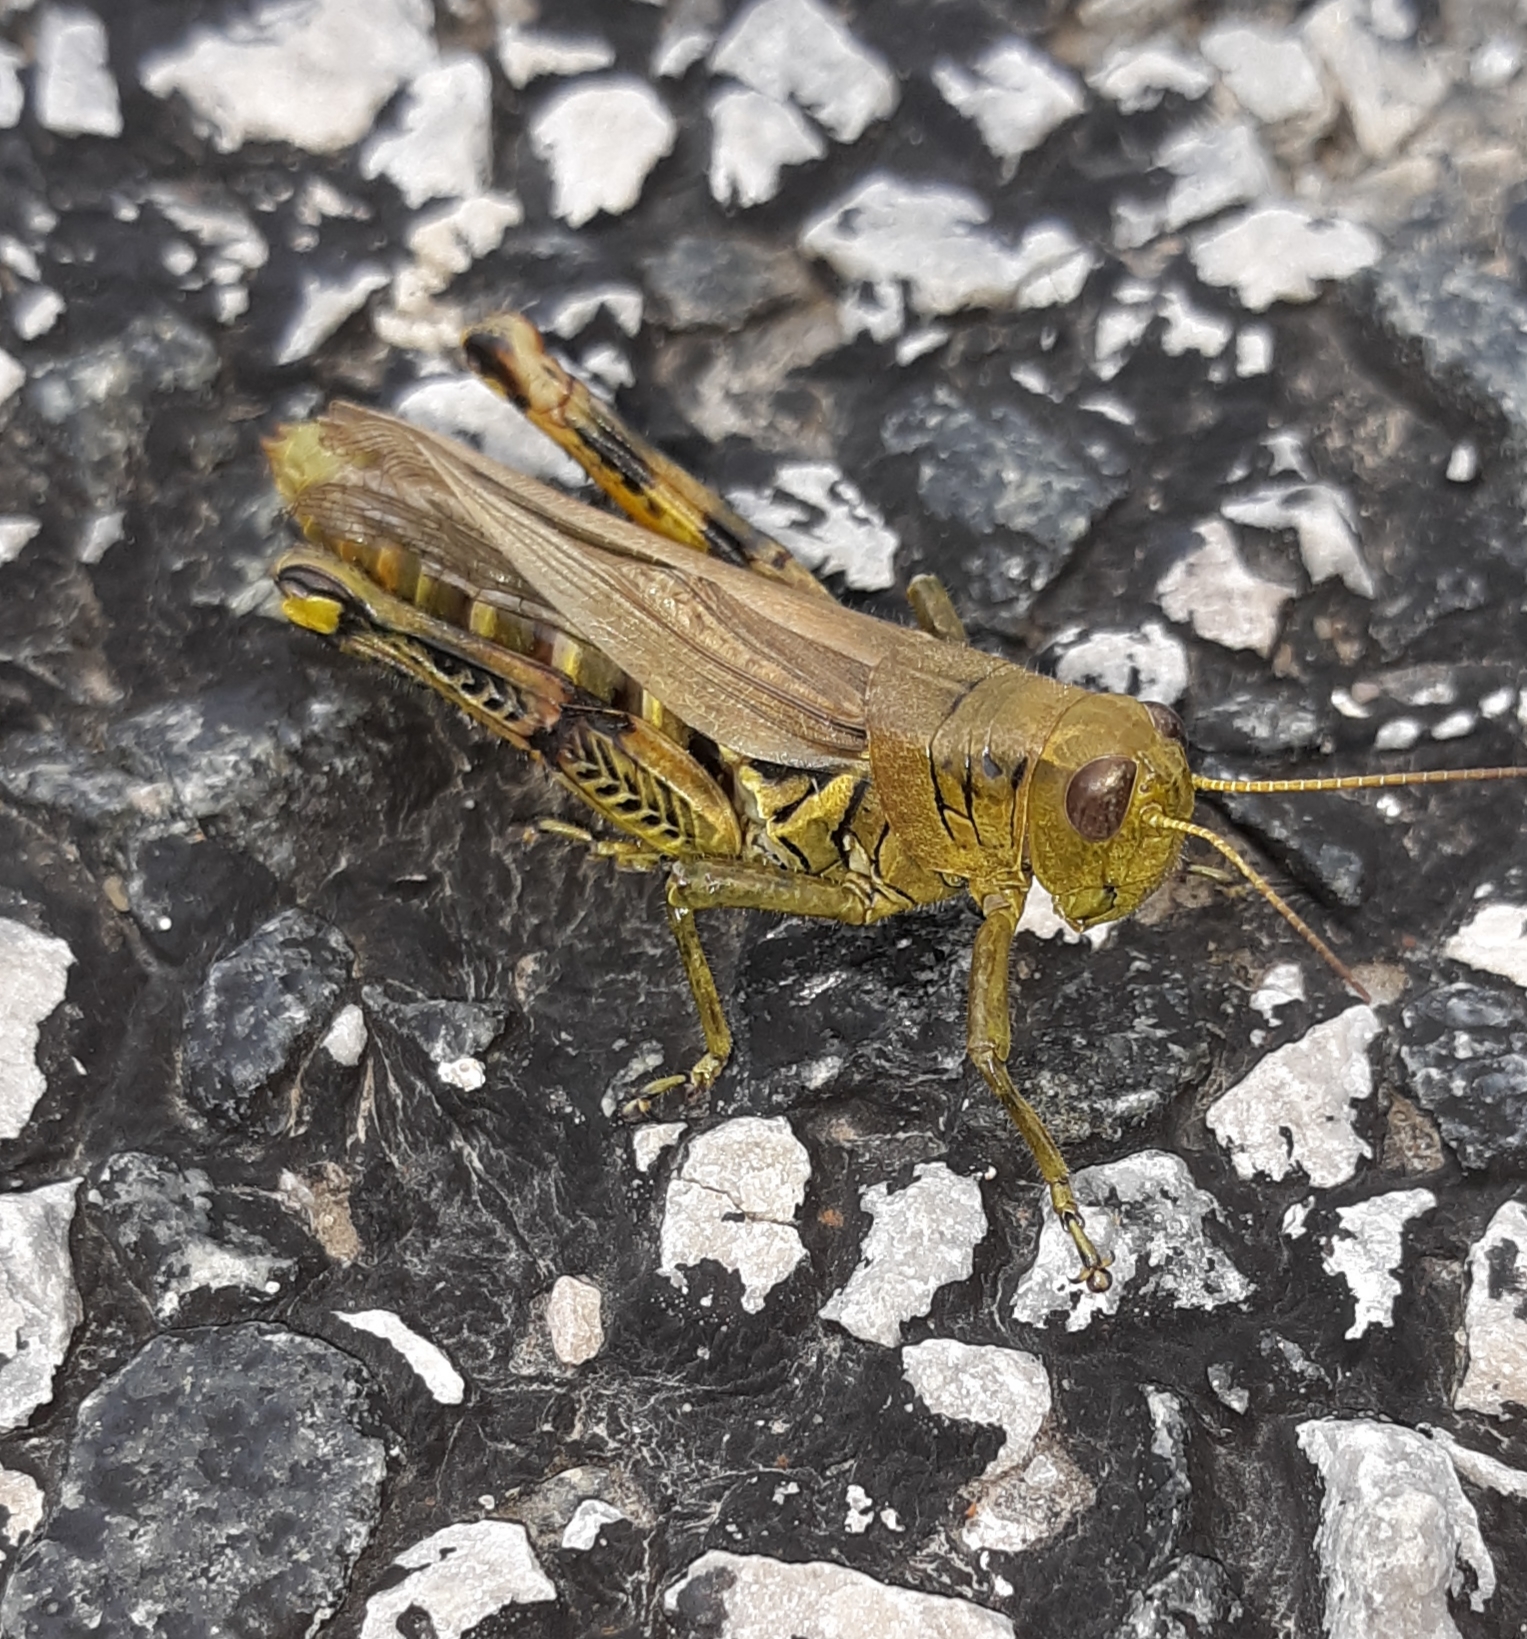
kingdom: Animalia
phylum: Arthropoda
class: Insecta
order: Orthoptera
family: Acrididae
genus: Melanoplus
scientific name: Melanoplus differentialis
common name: Differential grasshopper
